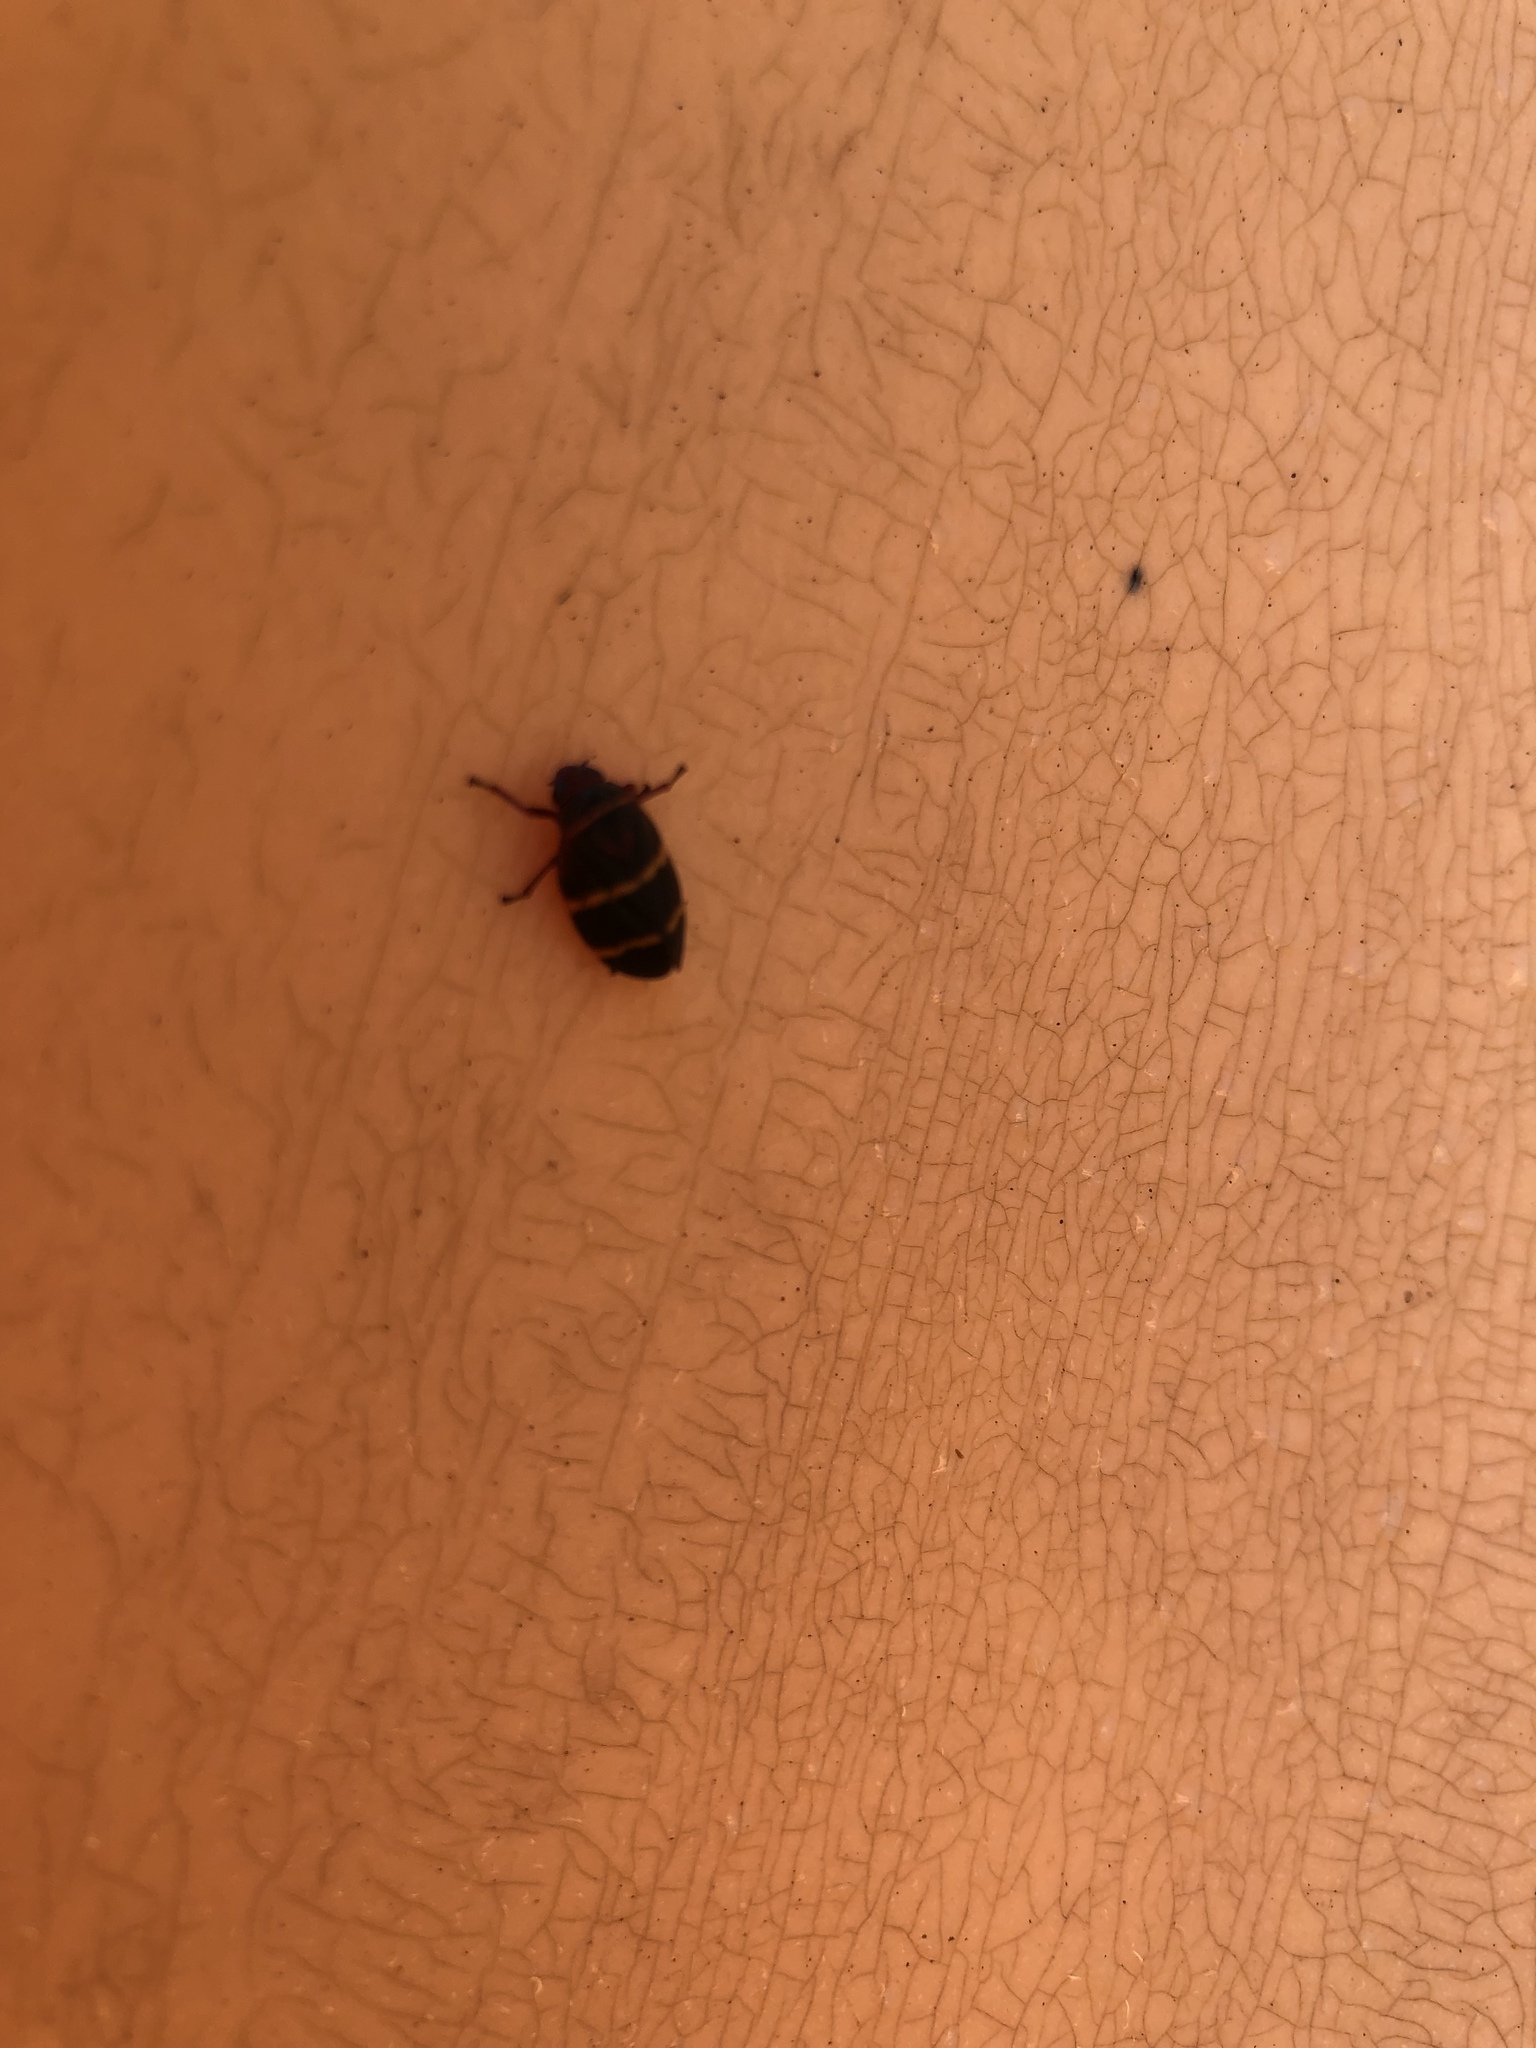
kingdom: Animalia
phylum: Arthropoda
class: Insecta
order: Hemiptera
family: Cercopidae
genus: Prosapia
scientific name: Prosapia bicincta
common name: Twolined spittlebug
